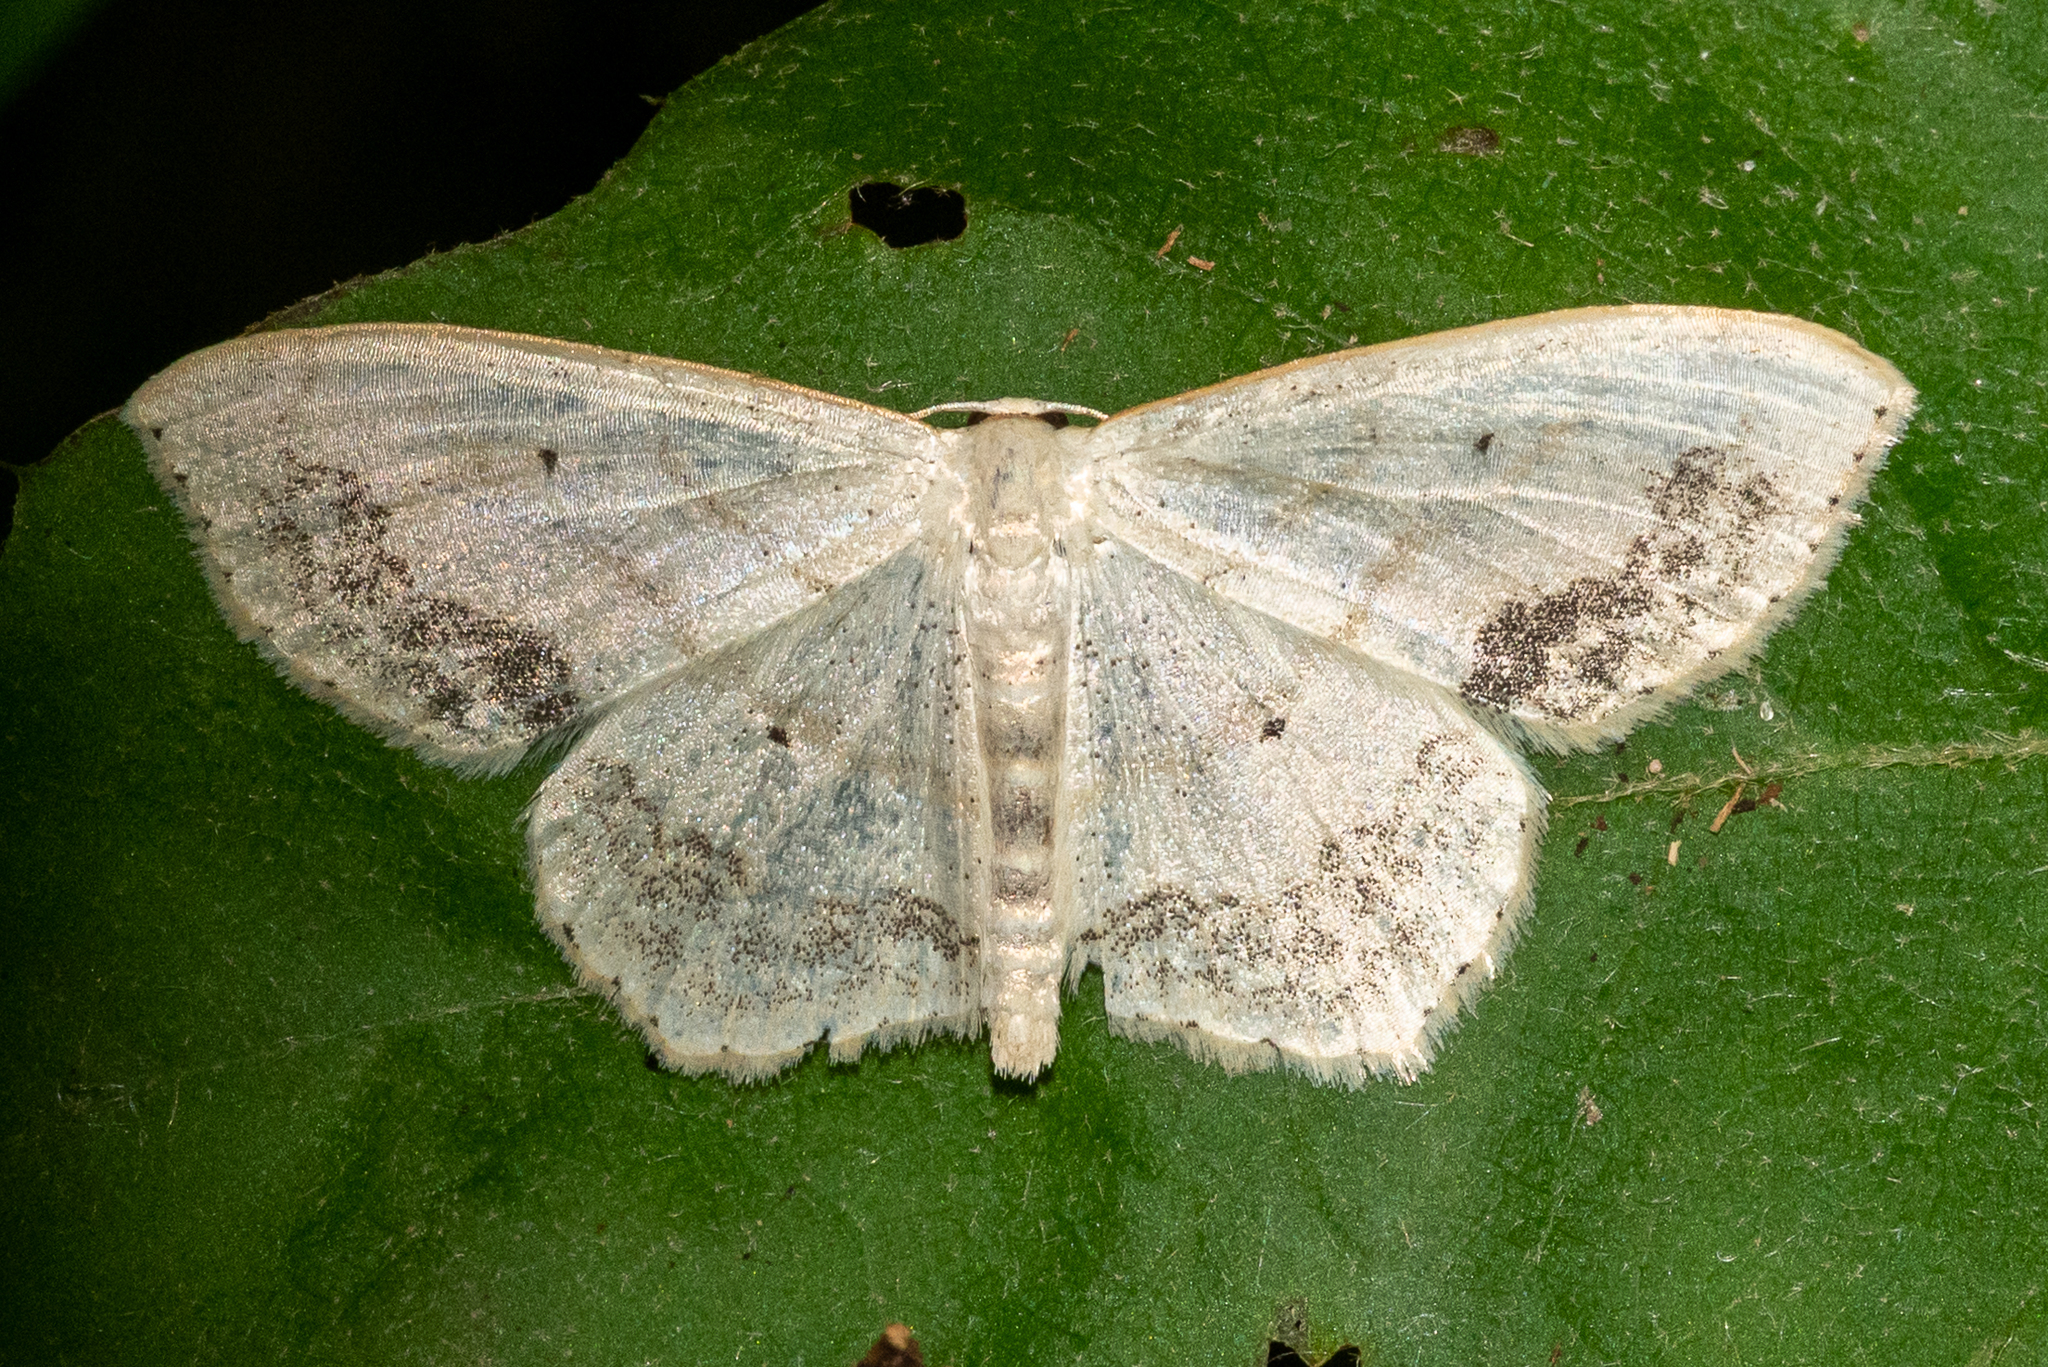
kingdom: Animalia
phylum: Arthropoda
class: Insecta
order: Lepidoptera
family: Geometridae
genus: Scopula
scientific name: Scopula limboundata
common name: Large lace border
